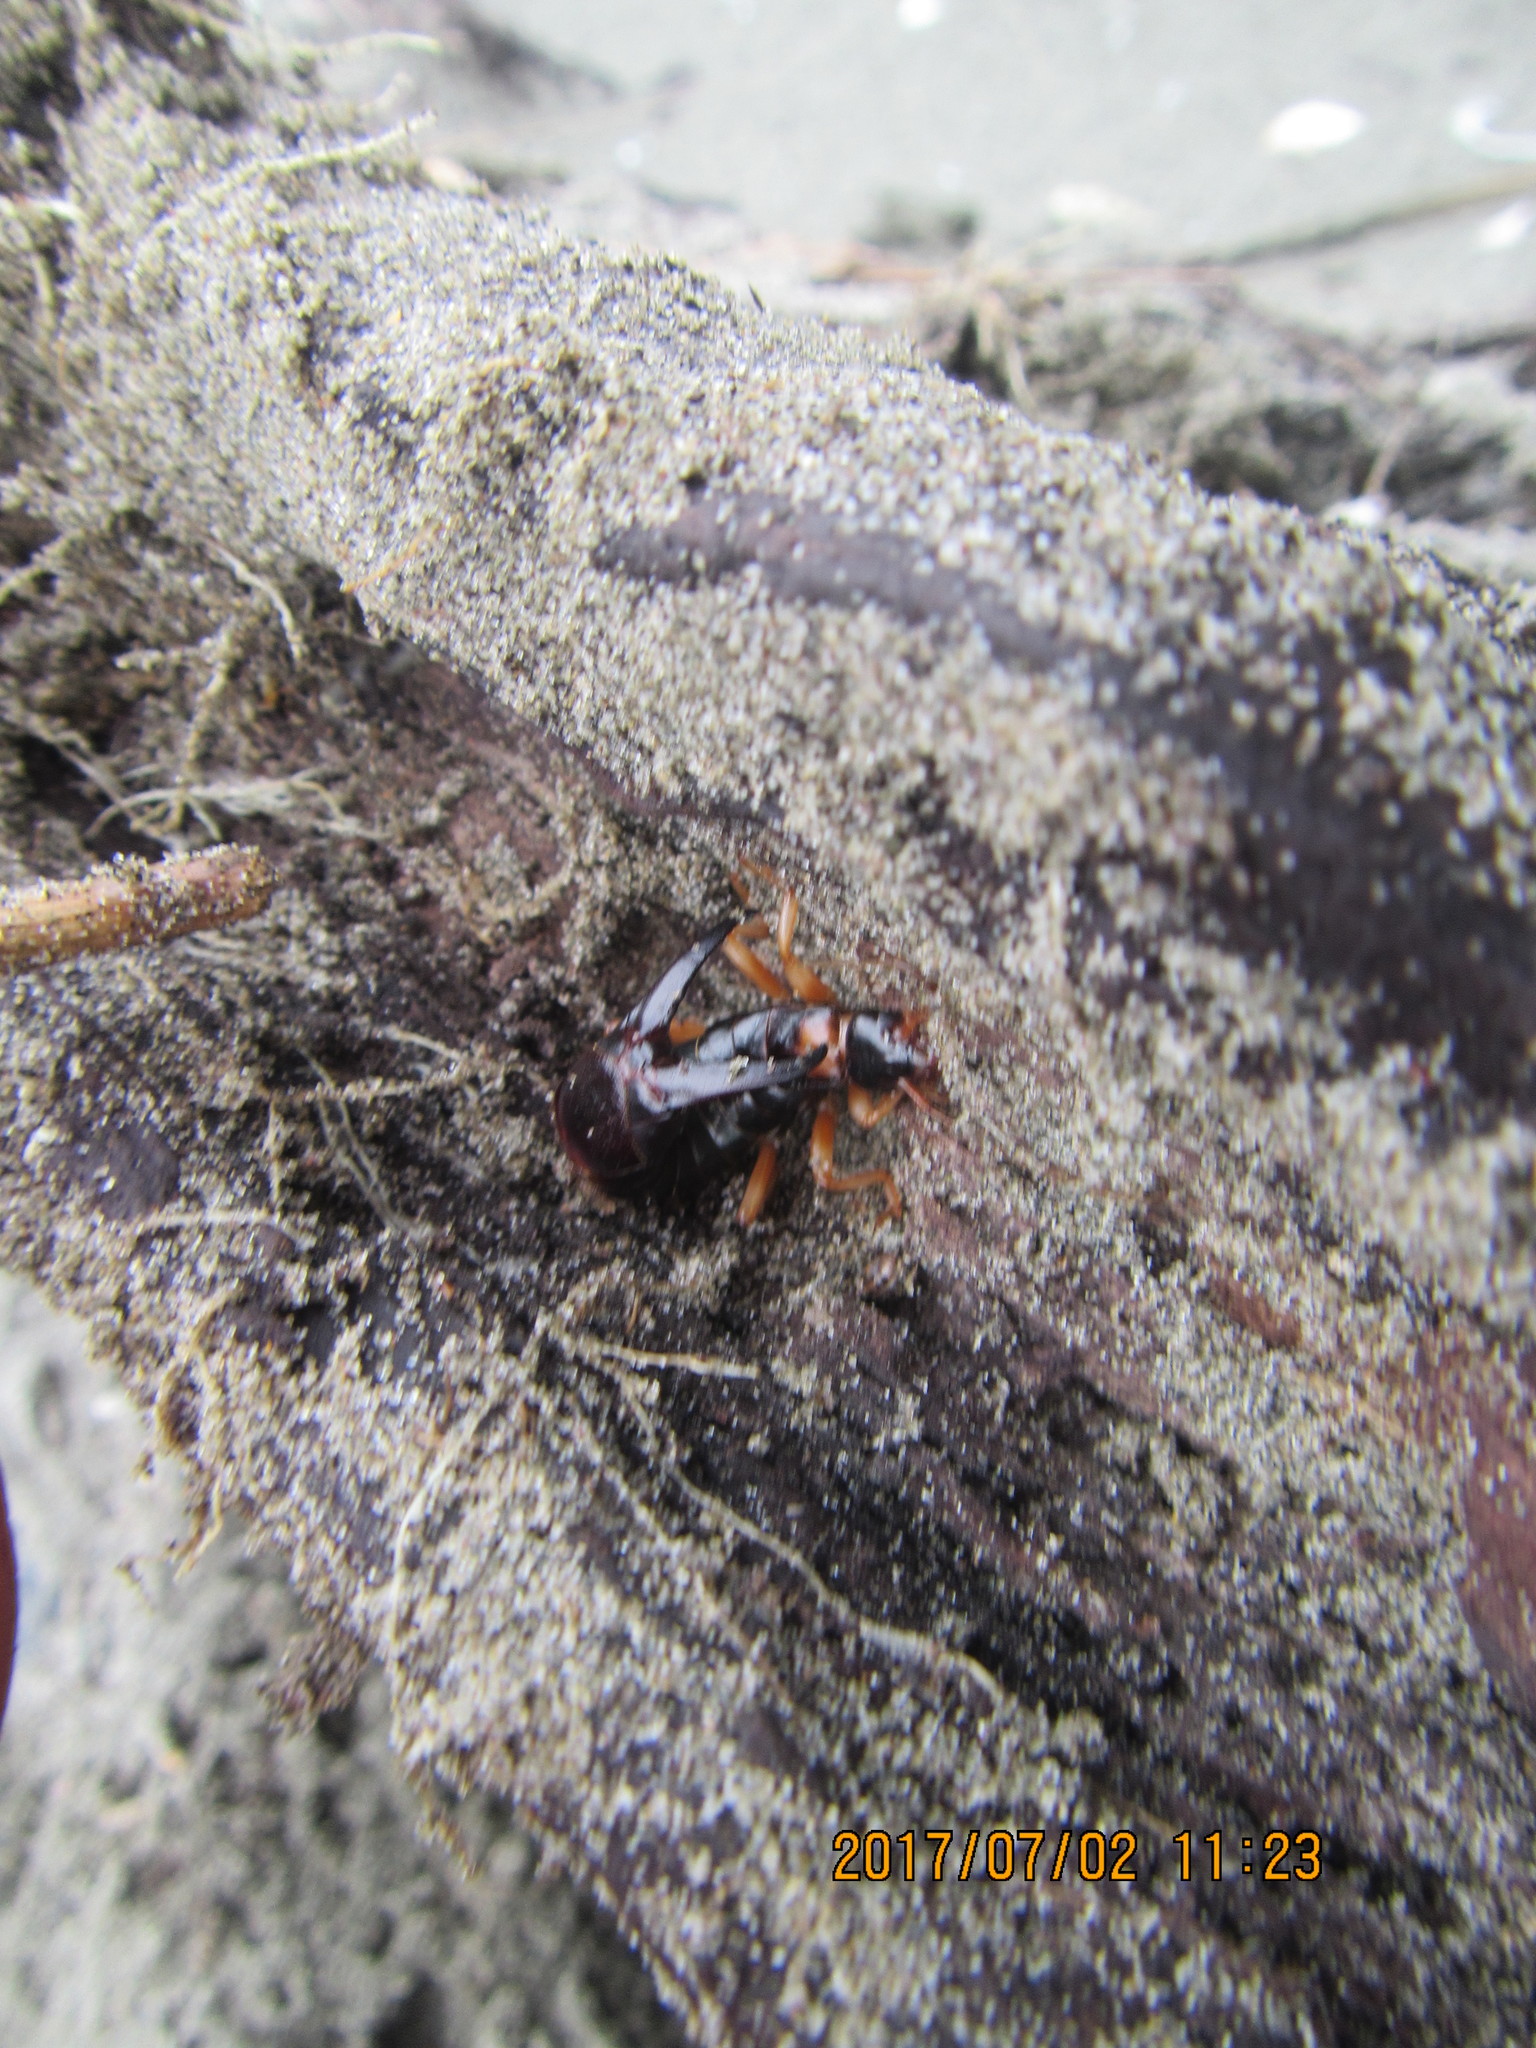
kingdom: Animalia
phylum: Arthropoda
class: Insecta
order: Dermaptera
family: Anisolabididae
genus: Anisolabis
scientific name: Anisolabis littorea
